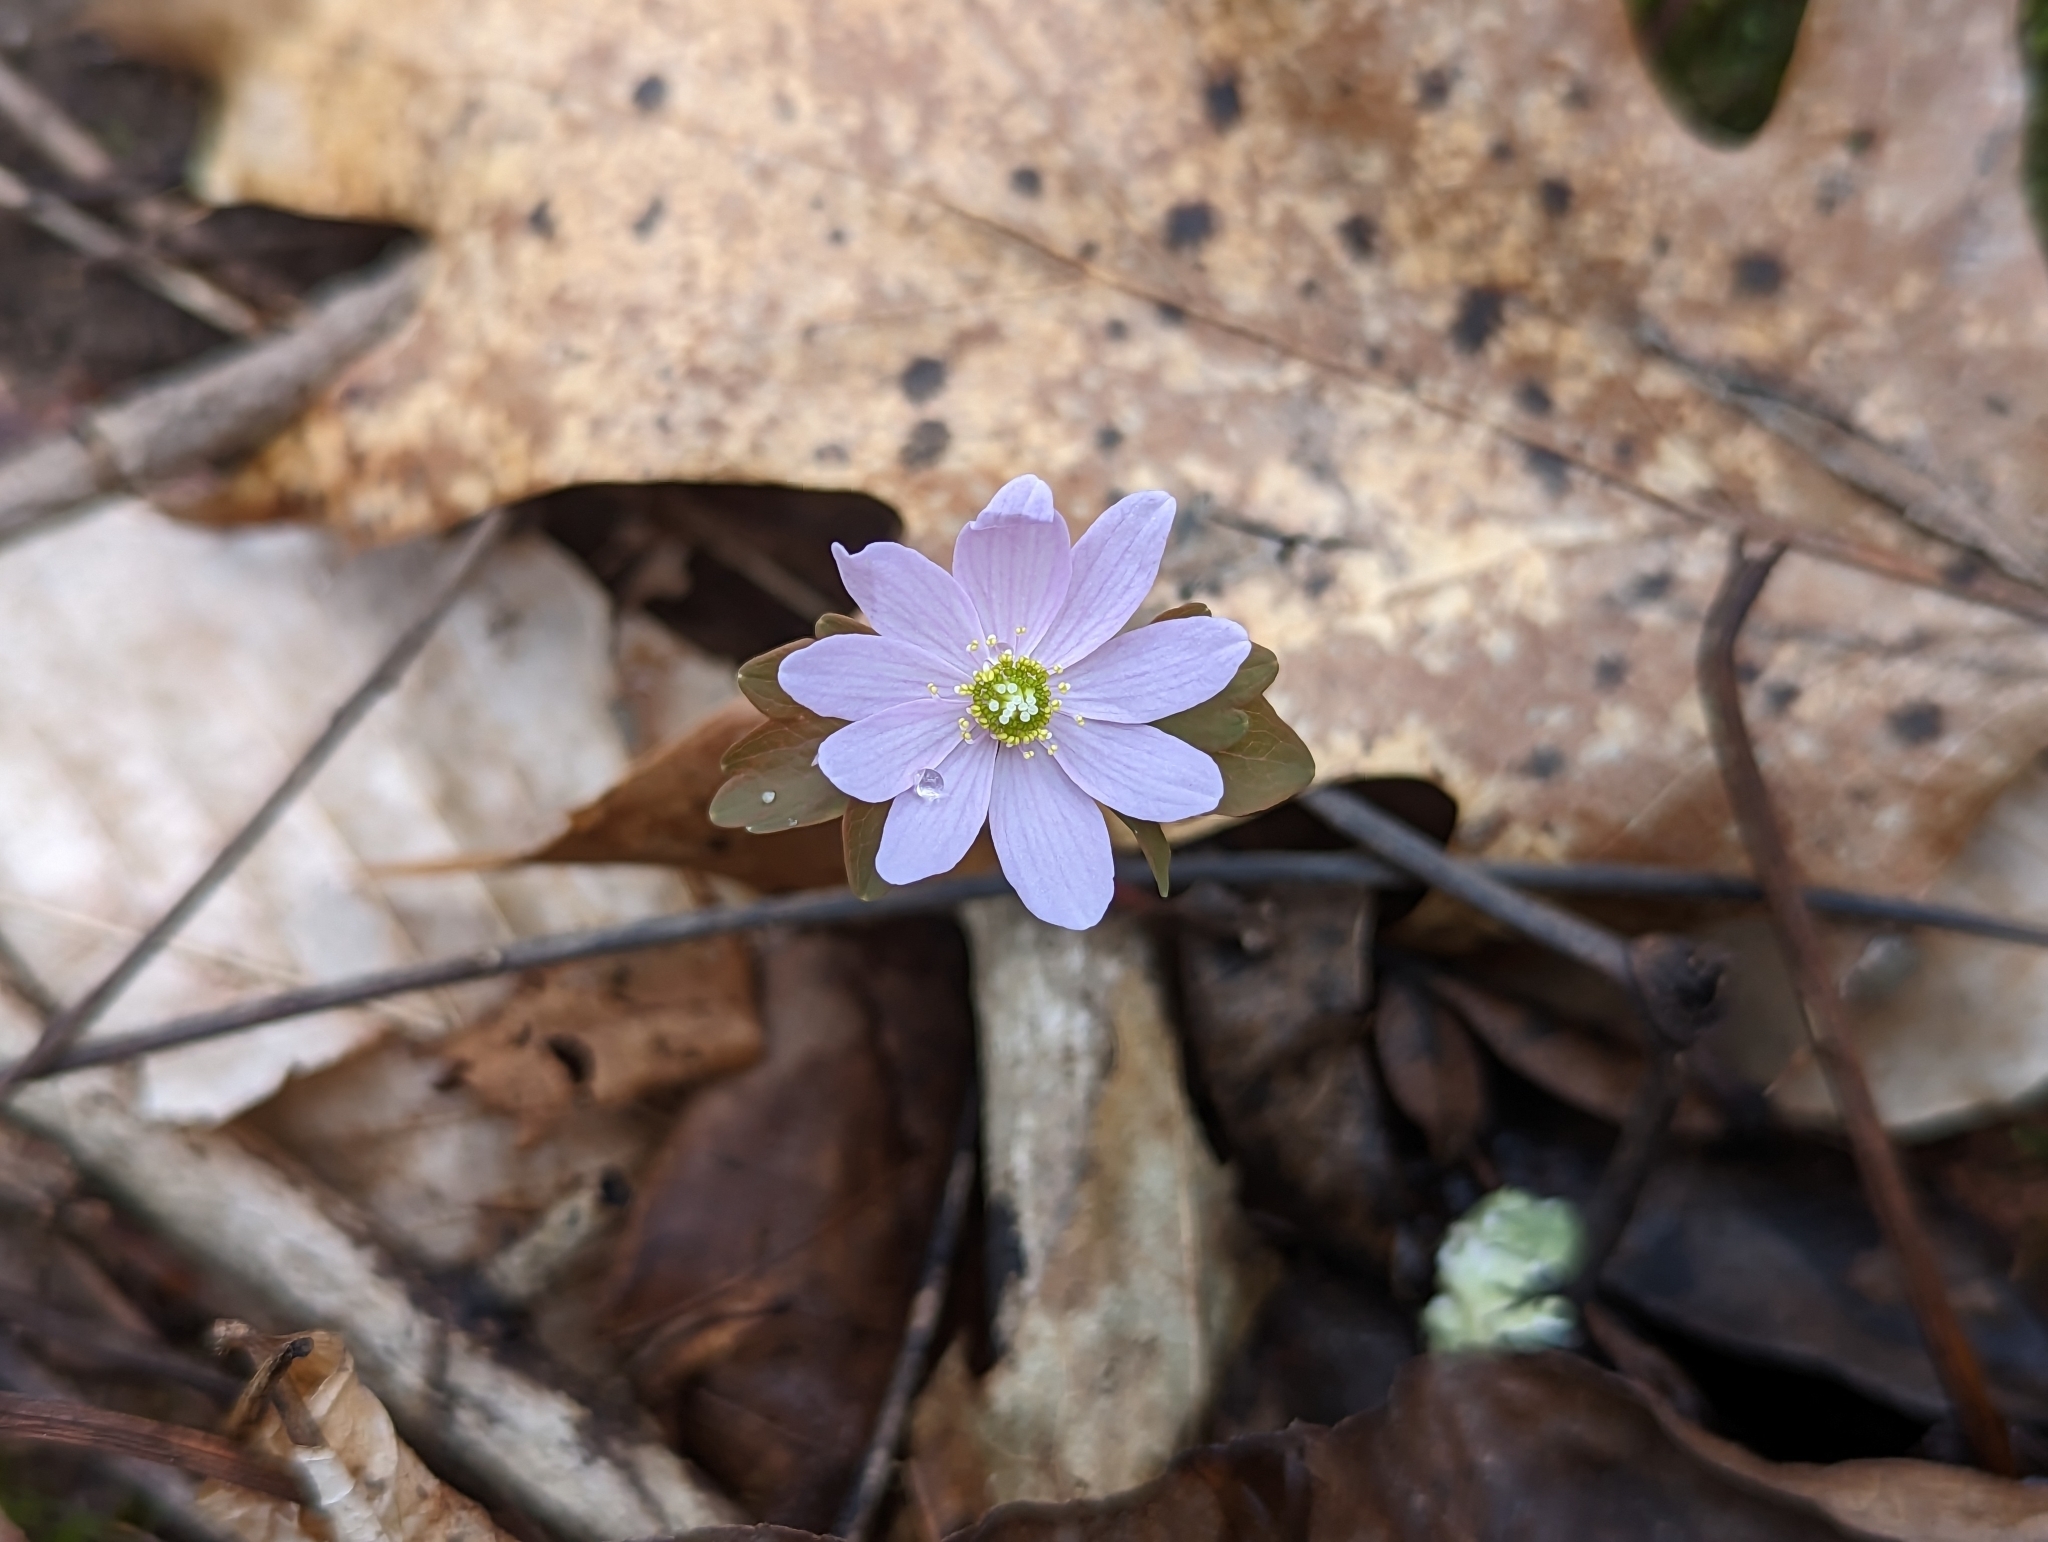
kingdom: Plantae
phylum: Tracheophyta
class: Magnoliopsida
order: Ranunculales
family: Ranunculaceae
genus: Thalictrum
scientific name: Thalictrum thalictroides
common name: Rue-anemone
